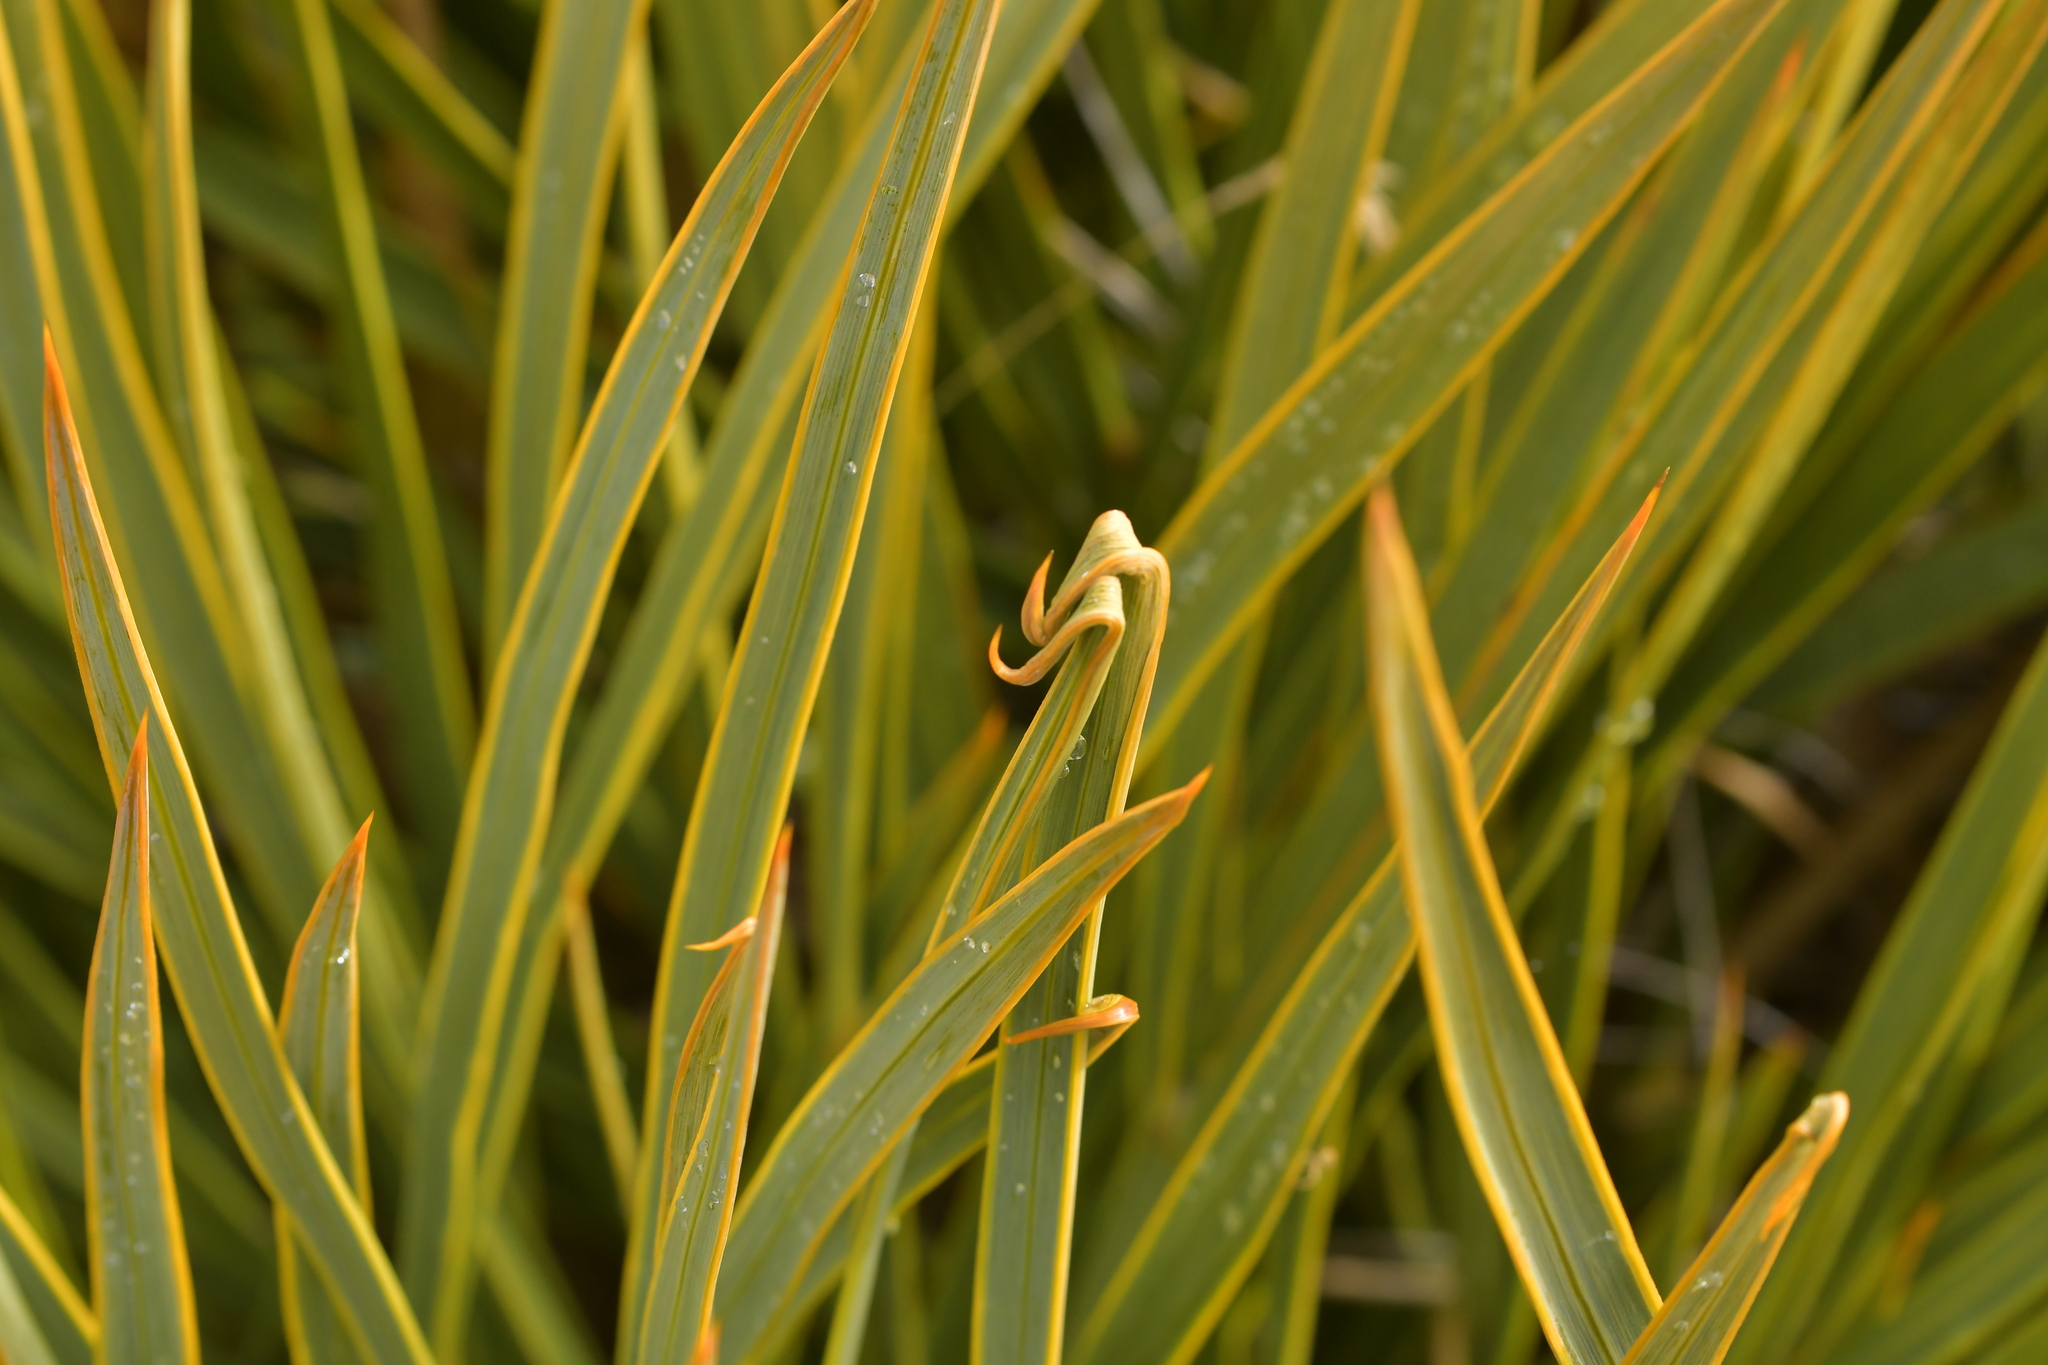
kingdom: Plantae
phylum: Tracheophyta
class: Magnoliopsida
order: Apiales
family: Apiaceae
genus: Aciphylla
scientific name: Aciphylla aurea
